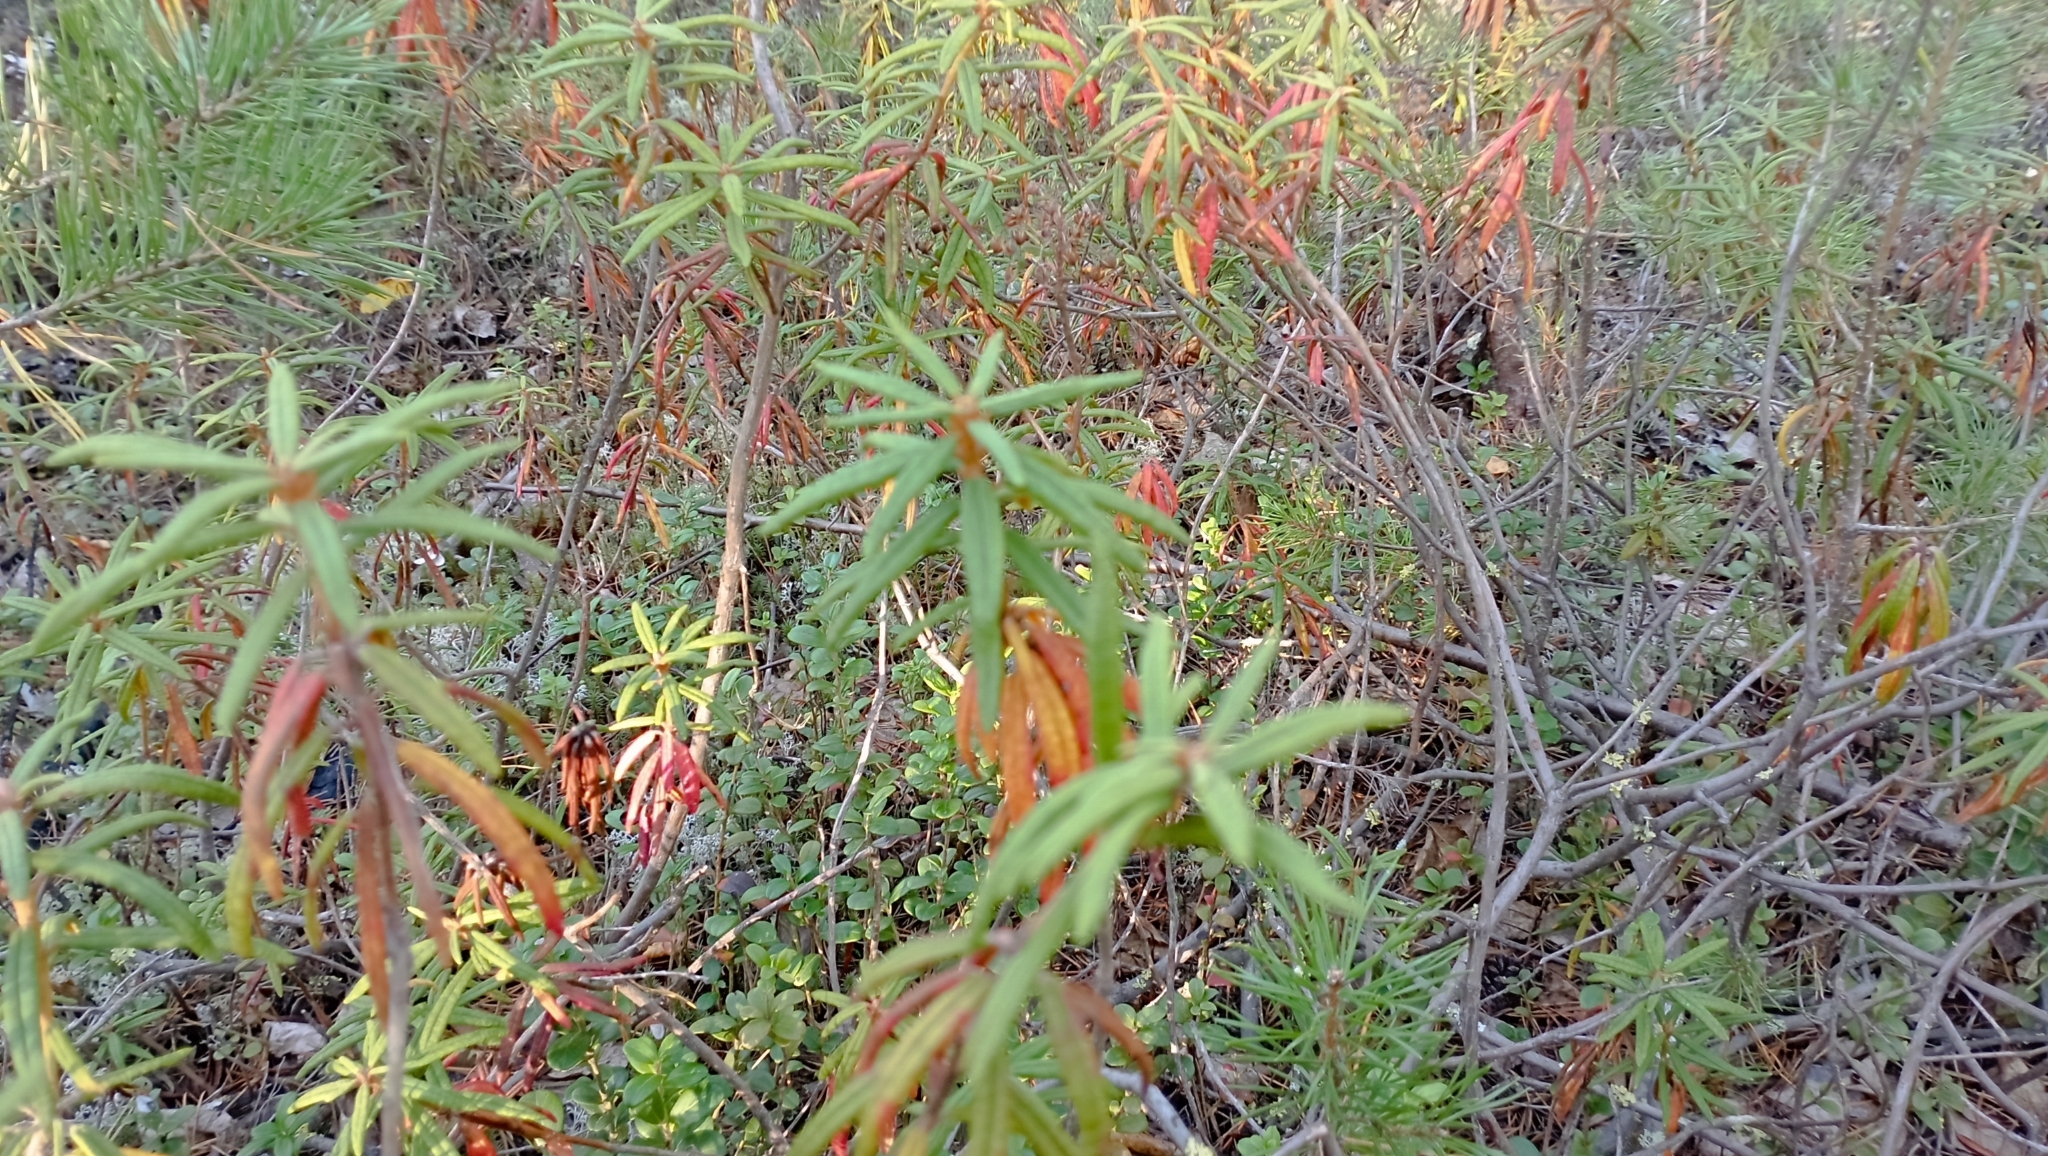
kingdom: Plantae
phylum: Tracheophyta
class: Magnoliopsida
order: Ericales
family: Ericaceae
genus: Rhododendron
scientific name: Rhododendron tomentosum
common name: Marsh labrador tea
